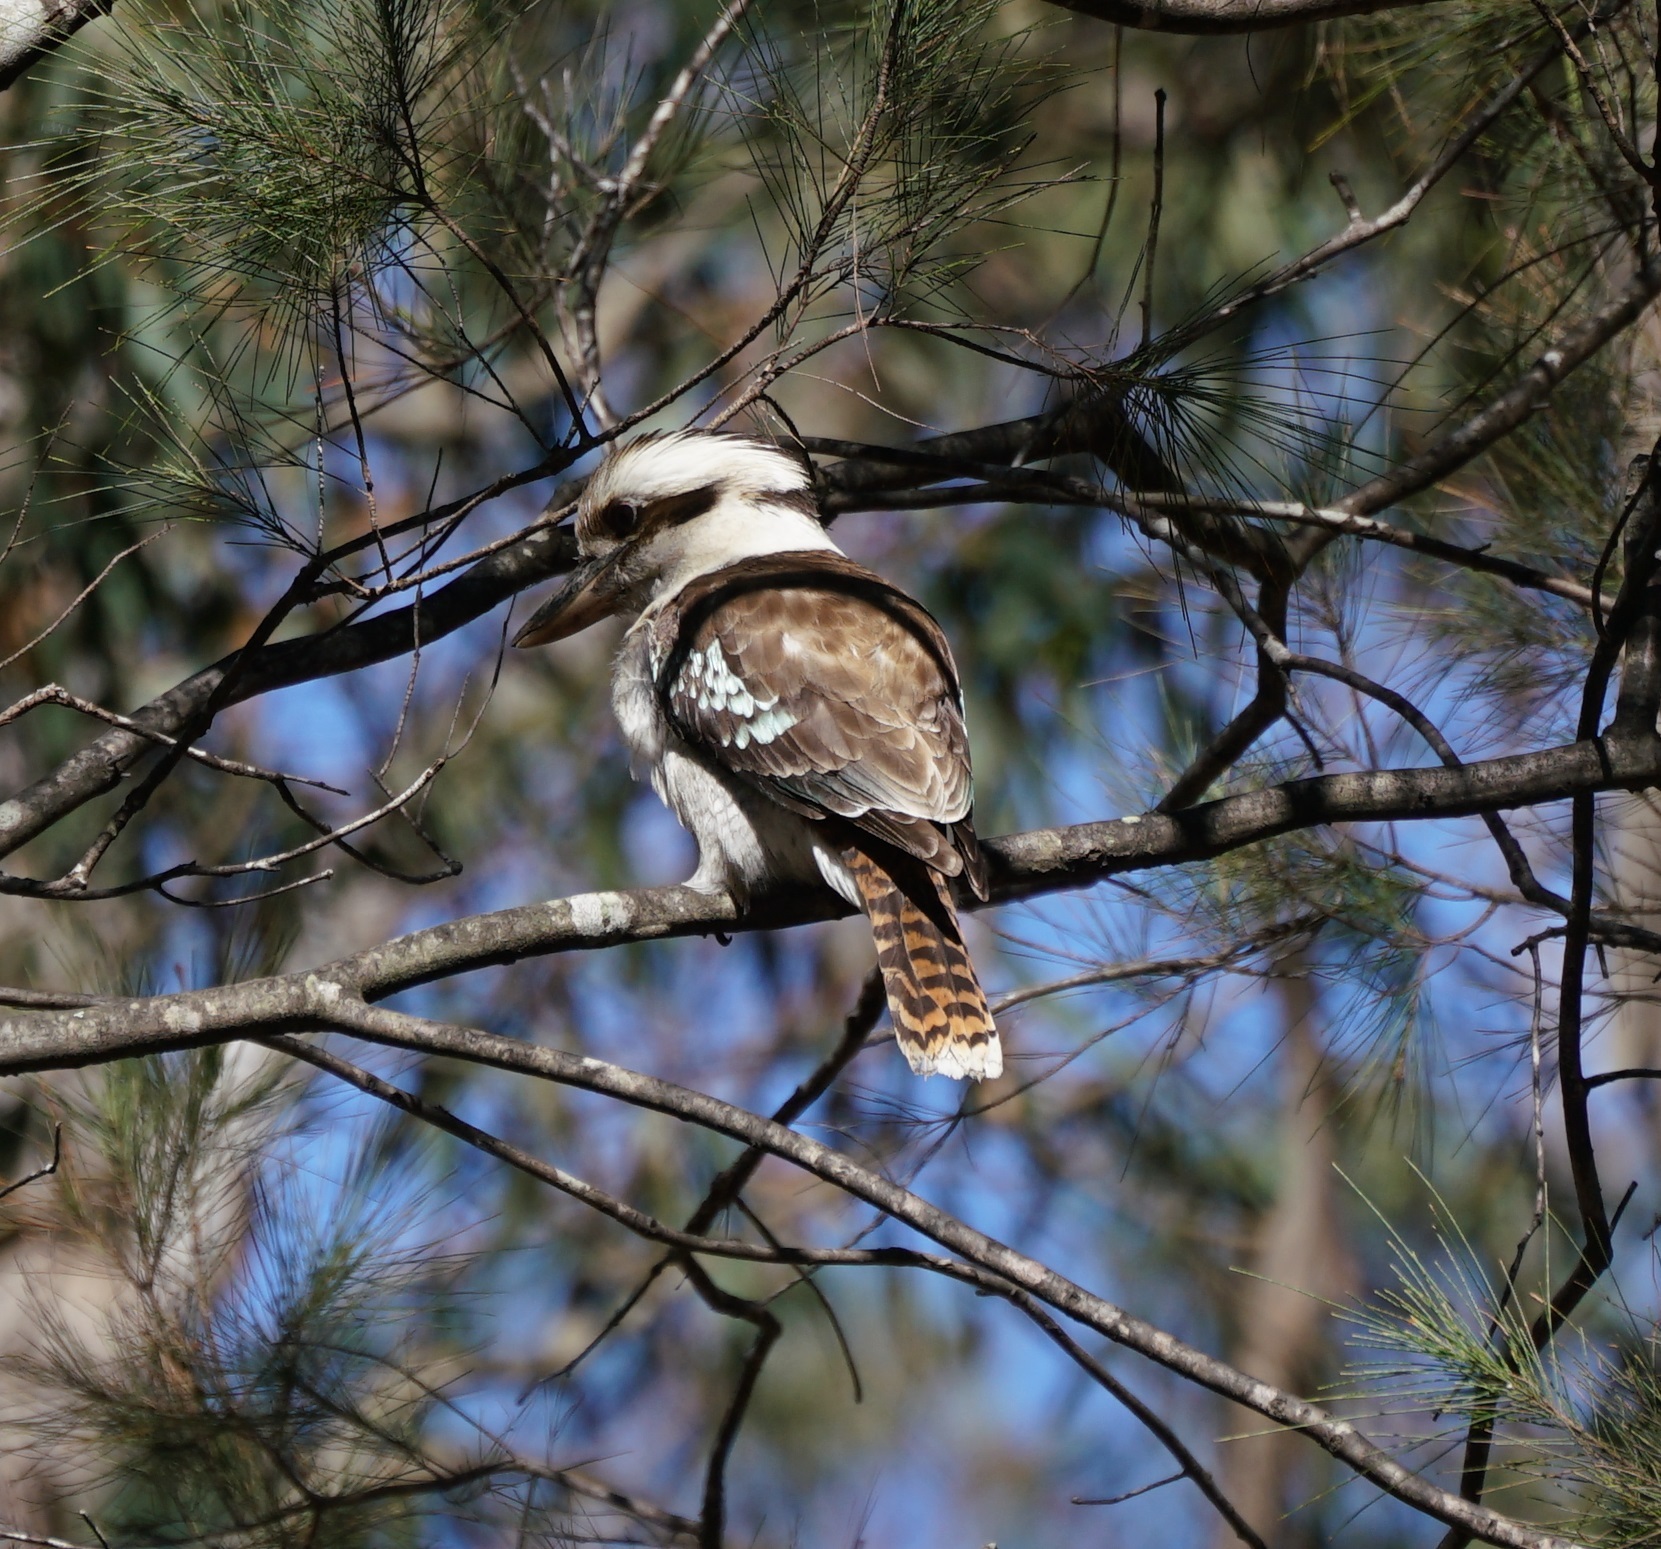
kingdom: Animalia
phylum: Chordata
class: Aves
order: Coraciiformes
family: Alcedinidae
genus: Dacelo
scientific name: Dacelo novaeguineae
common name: Laughing kookaburra
